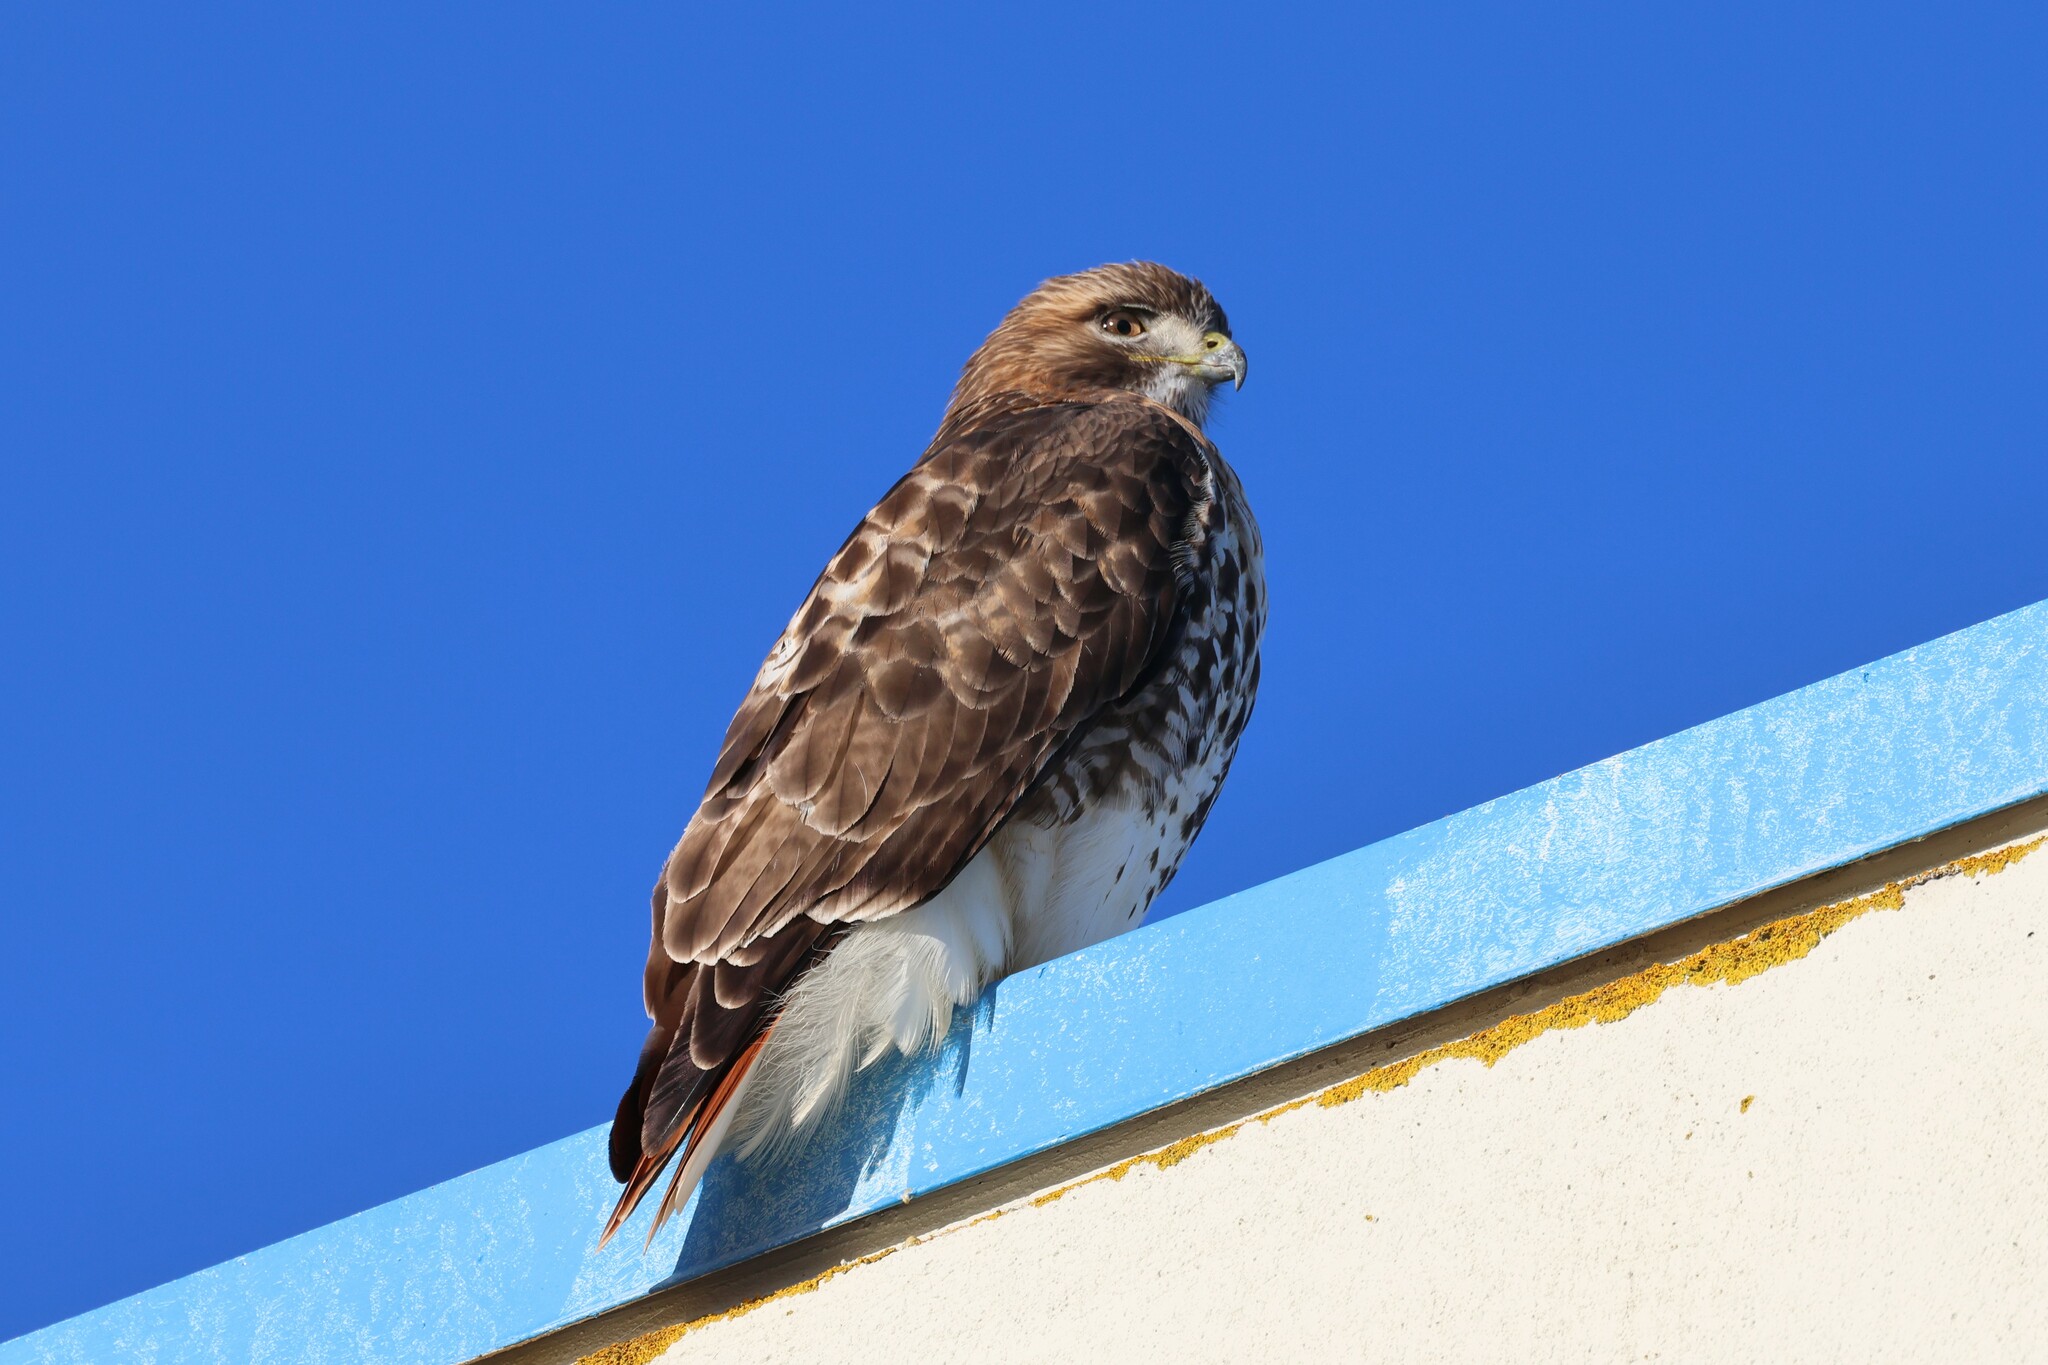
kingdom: Animalia
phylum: Chordata
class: Aves
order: Accipitriformes
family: Accipitridae
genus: Buteo
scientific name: Buteo jamaicensis
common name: Red-tailed hawk
